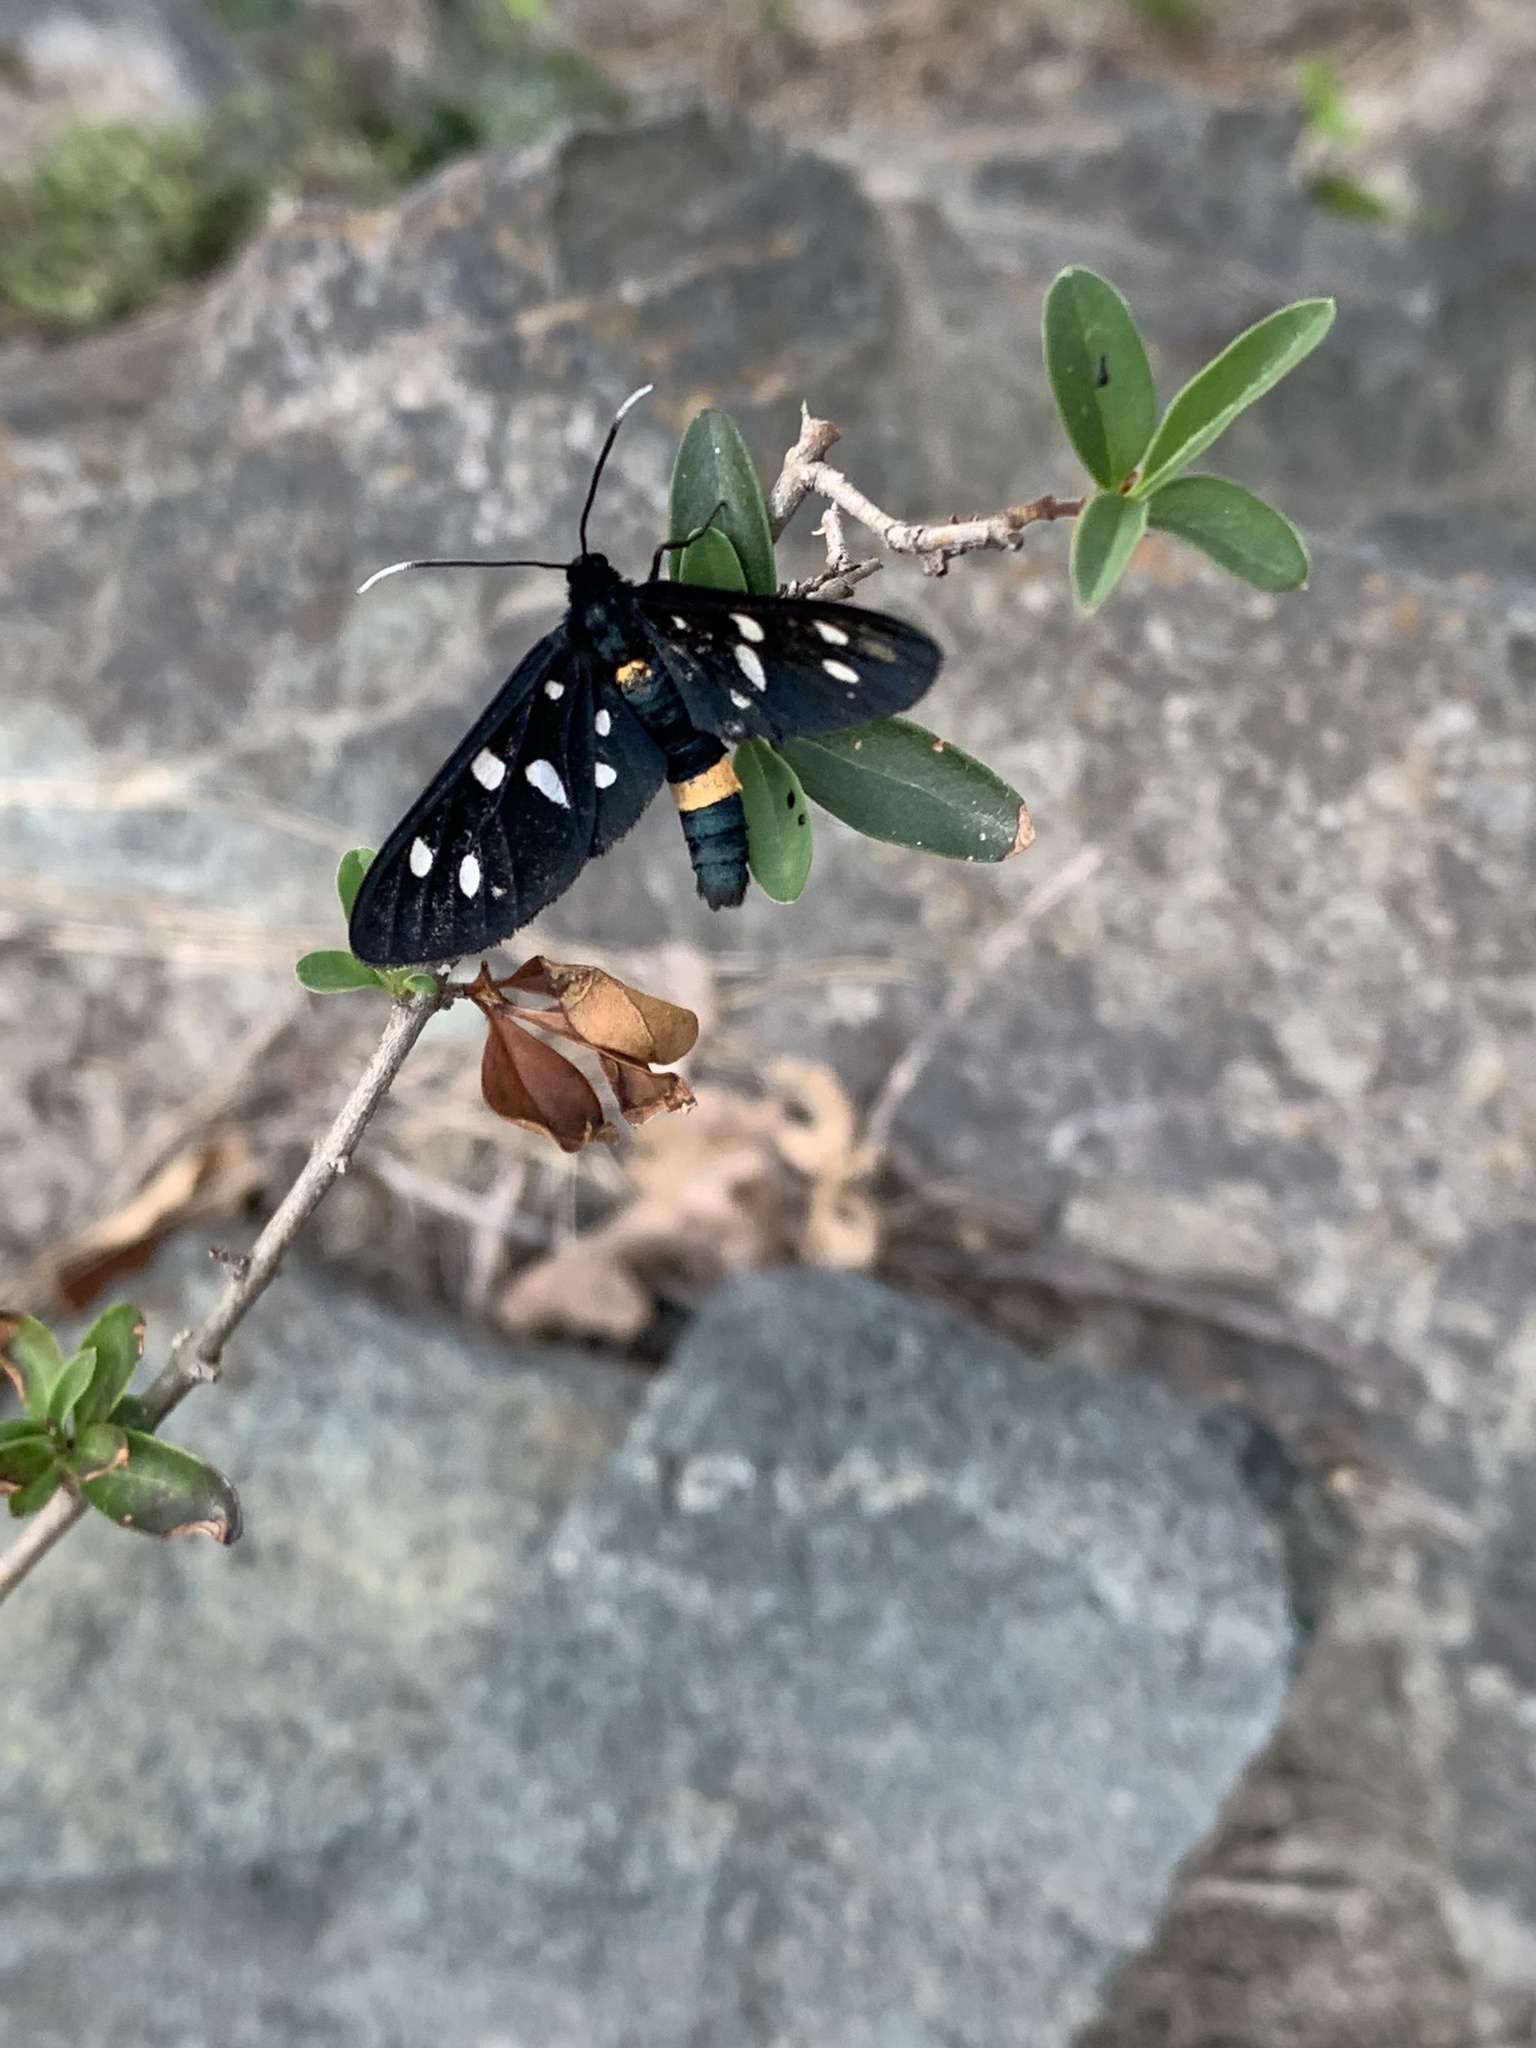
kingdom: Animalia
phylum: Arthropoda
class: Insecta
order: Lepidoptera
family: Erebidae
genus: Amata
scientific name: Amata phegea
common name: Nine-spotted
